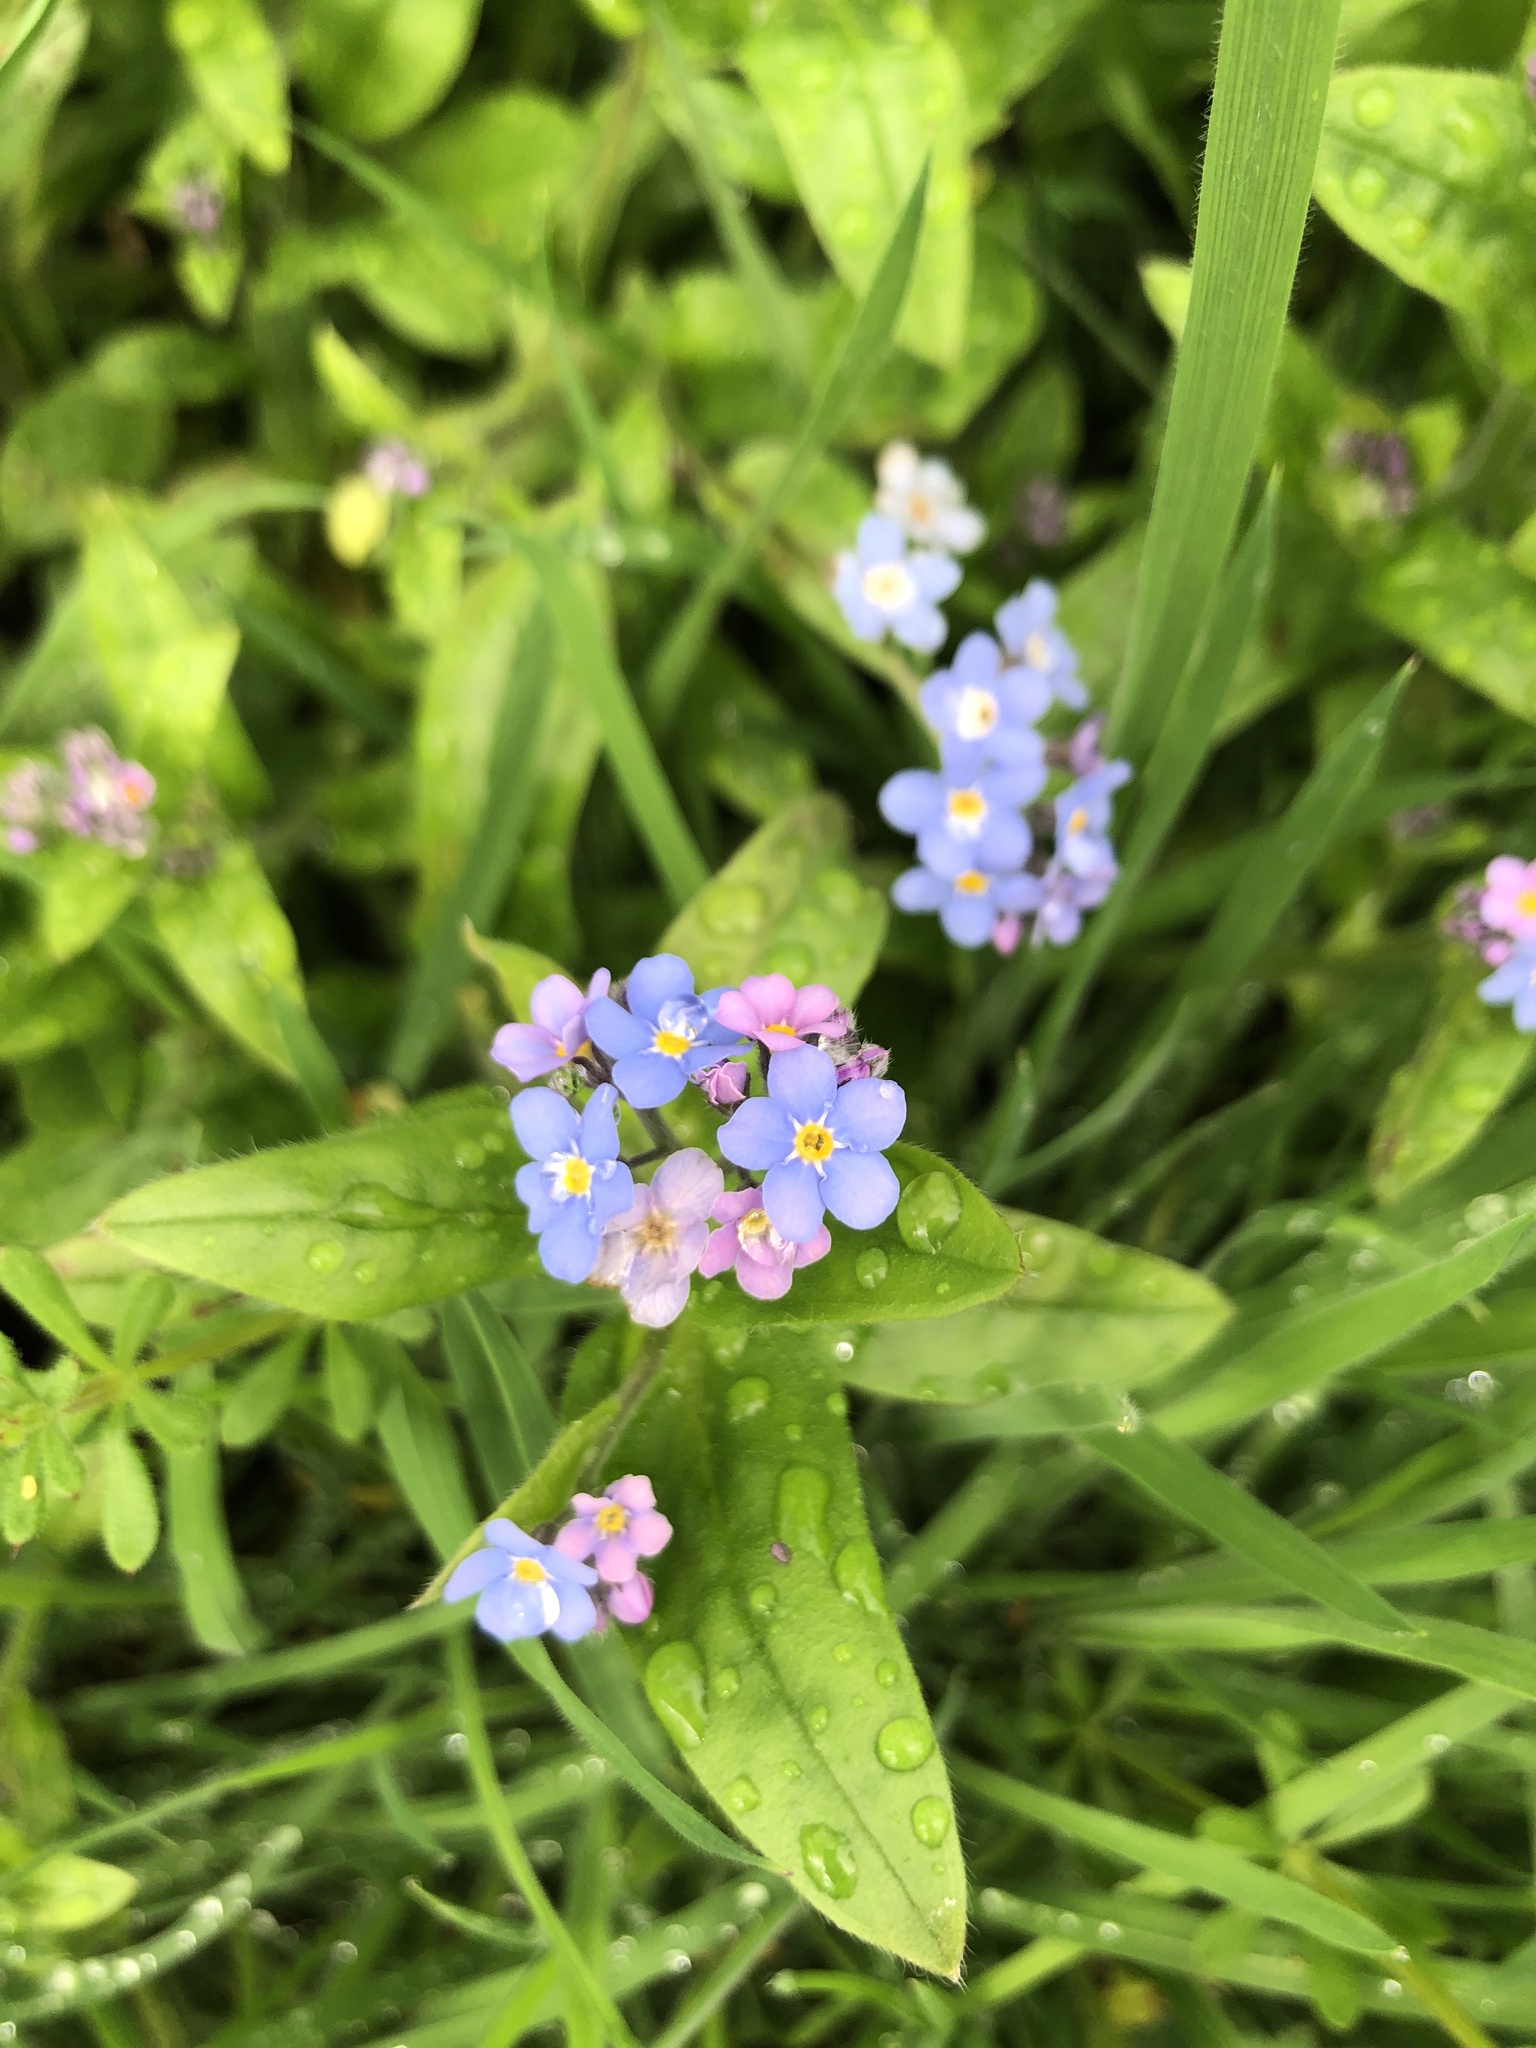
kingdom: Plantae
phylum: Tracheophyta
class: Magnoliopsida
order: Boraginales
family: Boraginaceae
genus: Myosotis
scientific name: Myosotis sylvatica
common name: Wood forget-me-not
